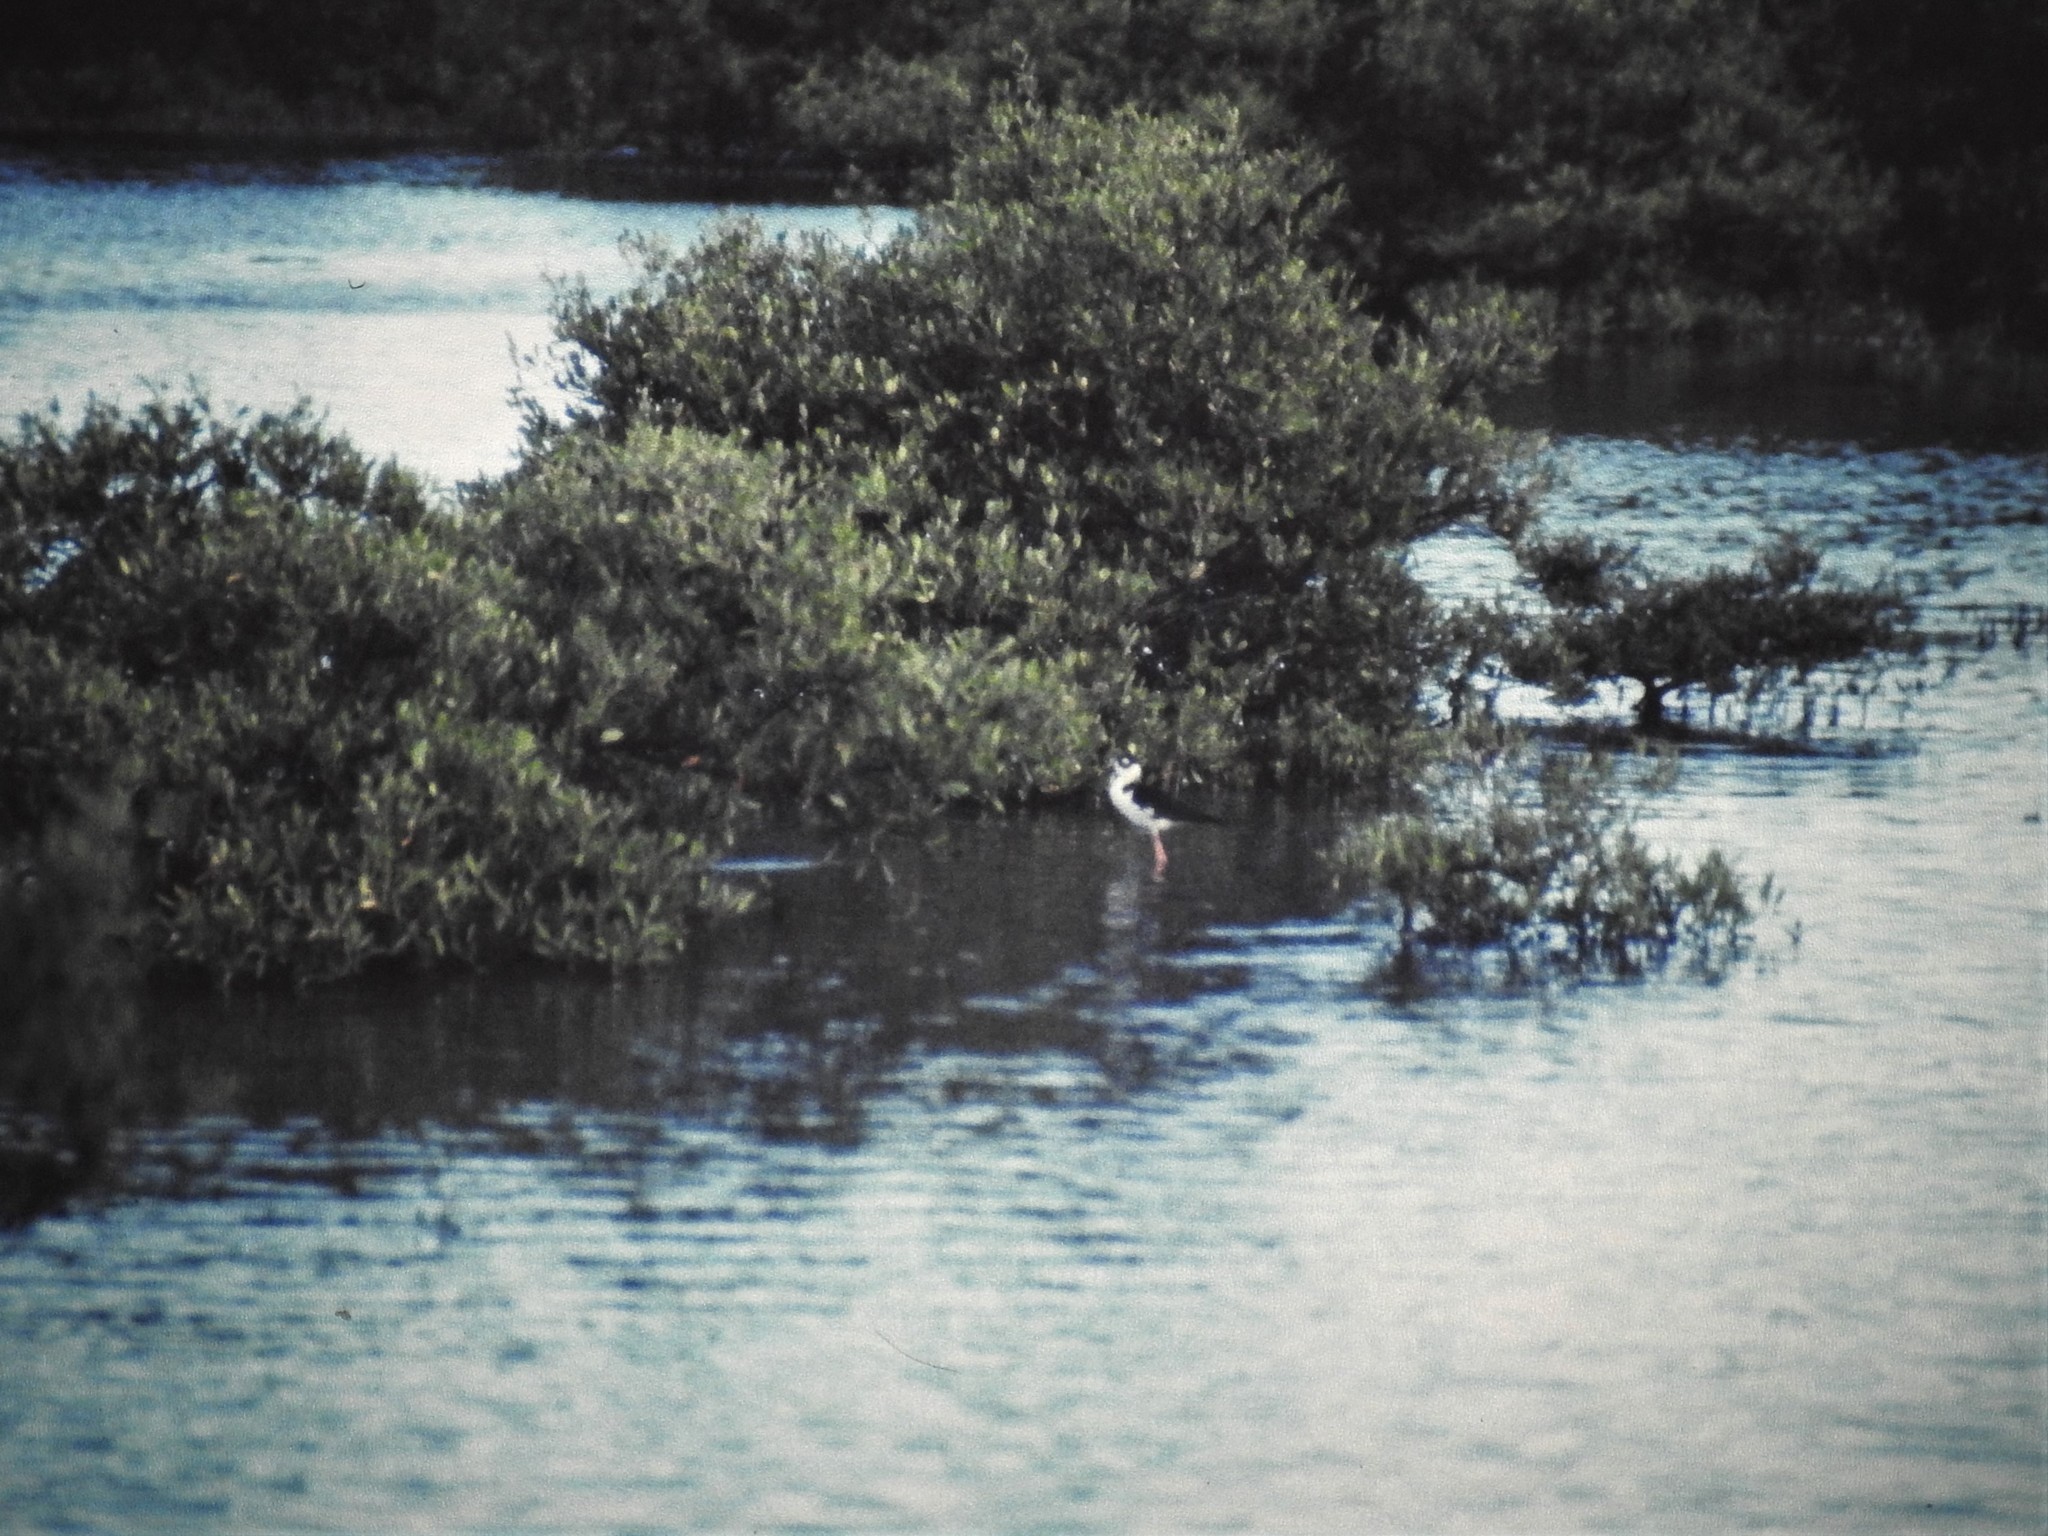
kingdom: Animalia
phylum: Chordata
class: Aves
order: Charadriiformes
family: Recurvirostridae
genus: Himantopus
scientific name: Himantopus mexicanus
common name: Black-necked stilt
